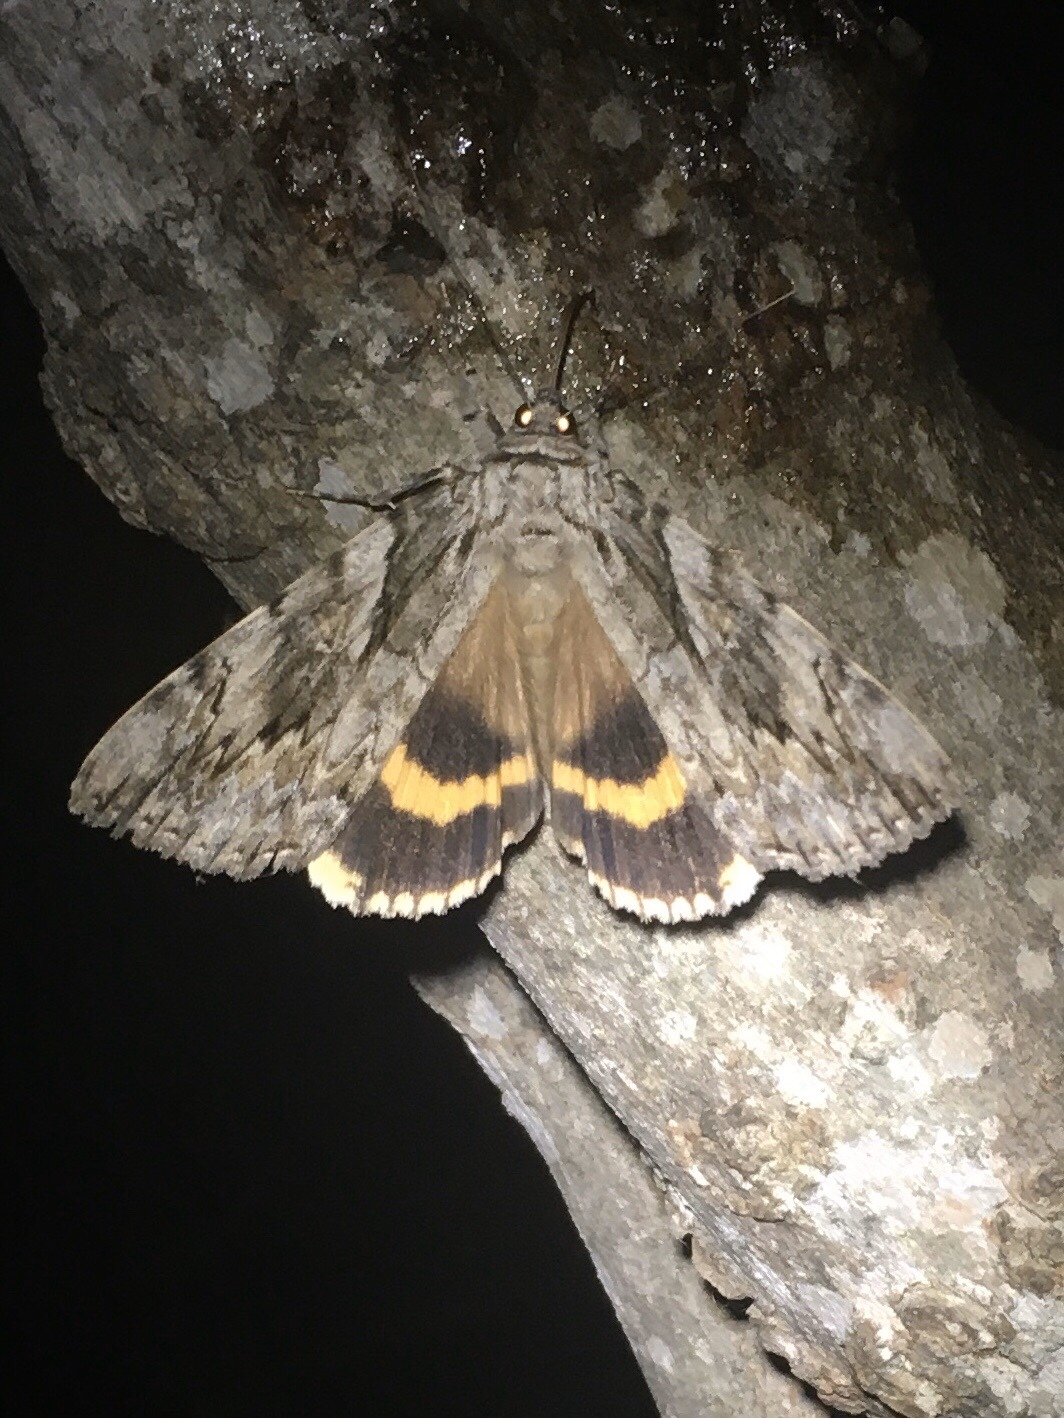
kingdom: Animalia
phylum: Arthropoda
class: Insecta
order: Lepidoptera
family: Erebidae
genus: Catocala
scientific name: Catocala cerogama
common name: Yellow banded underwing
